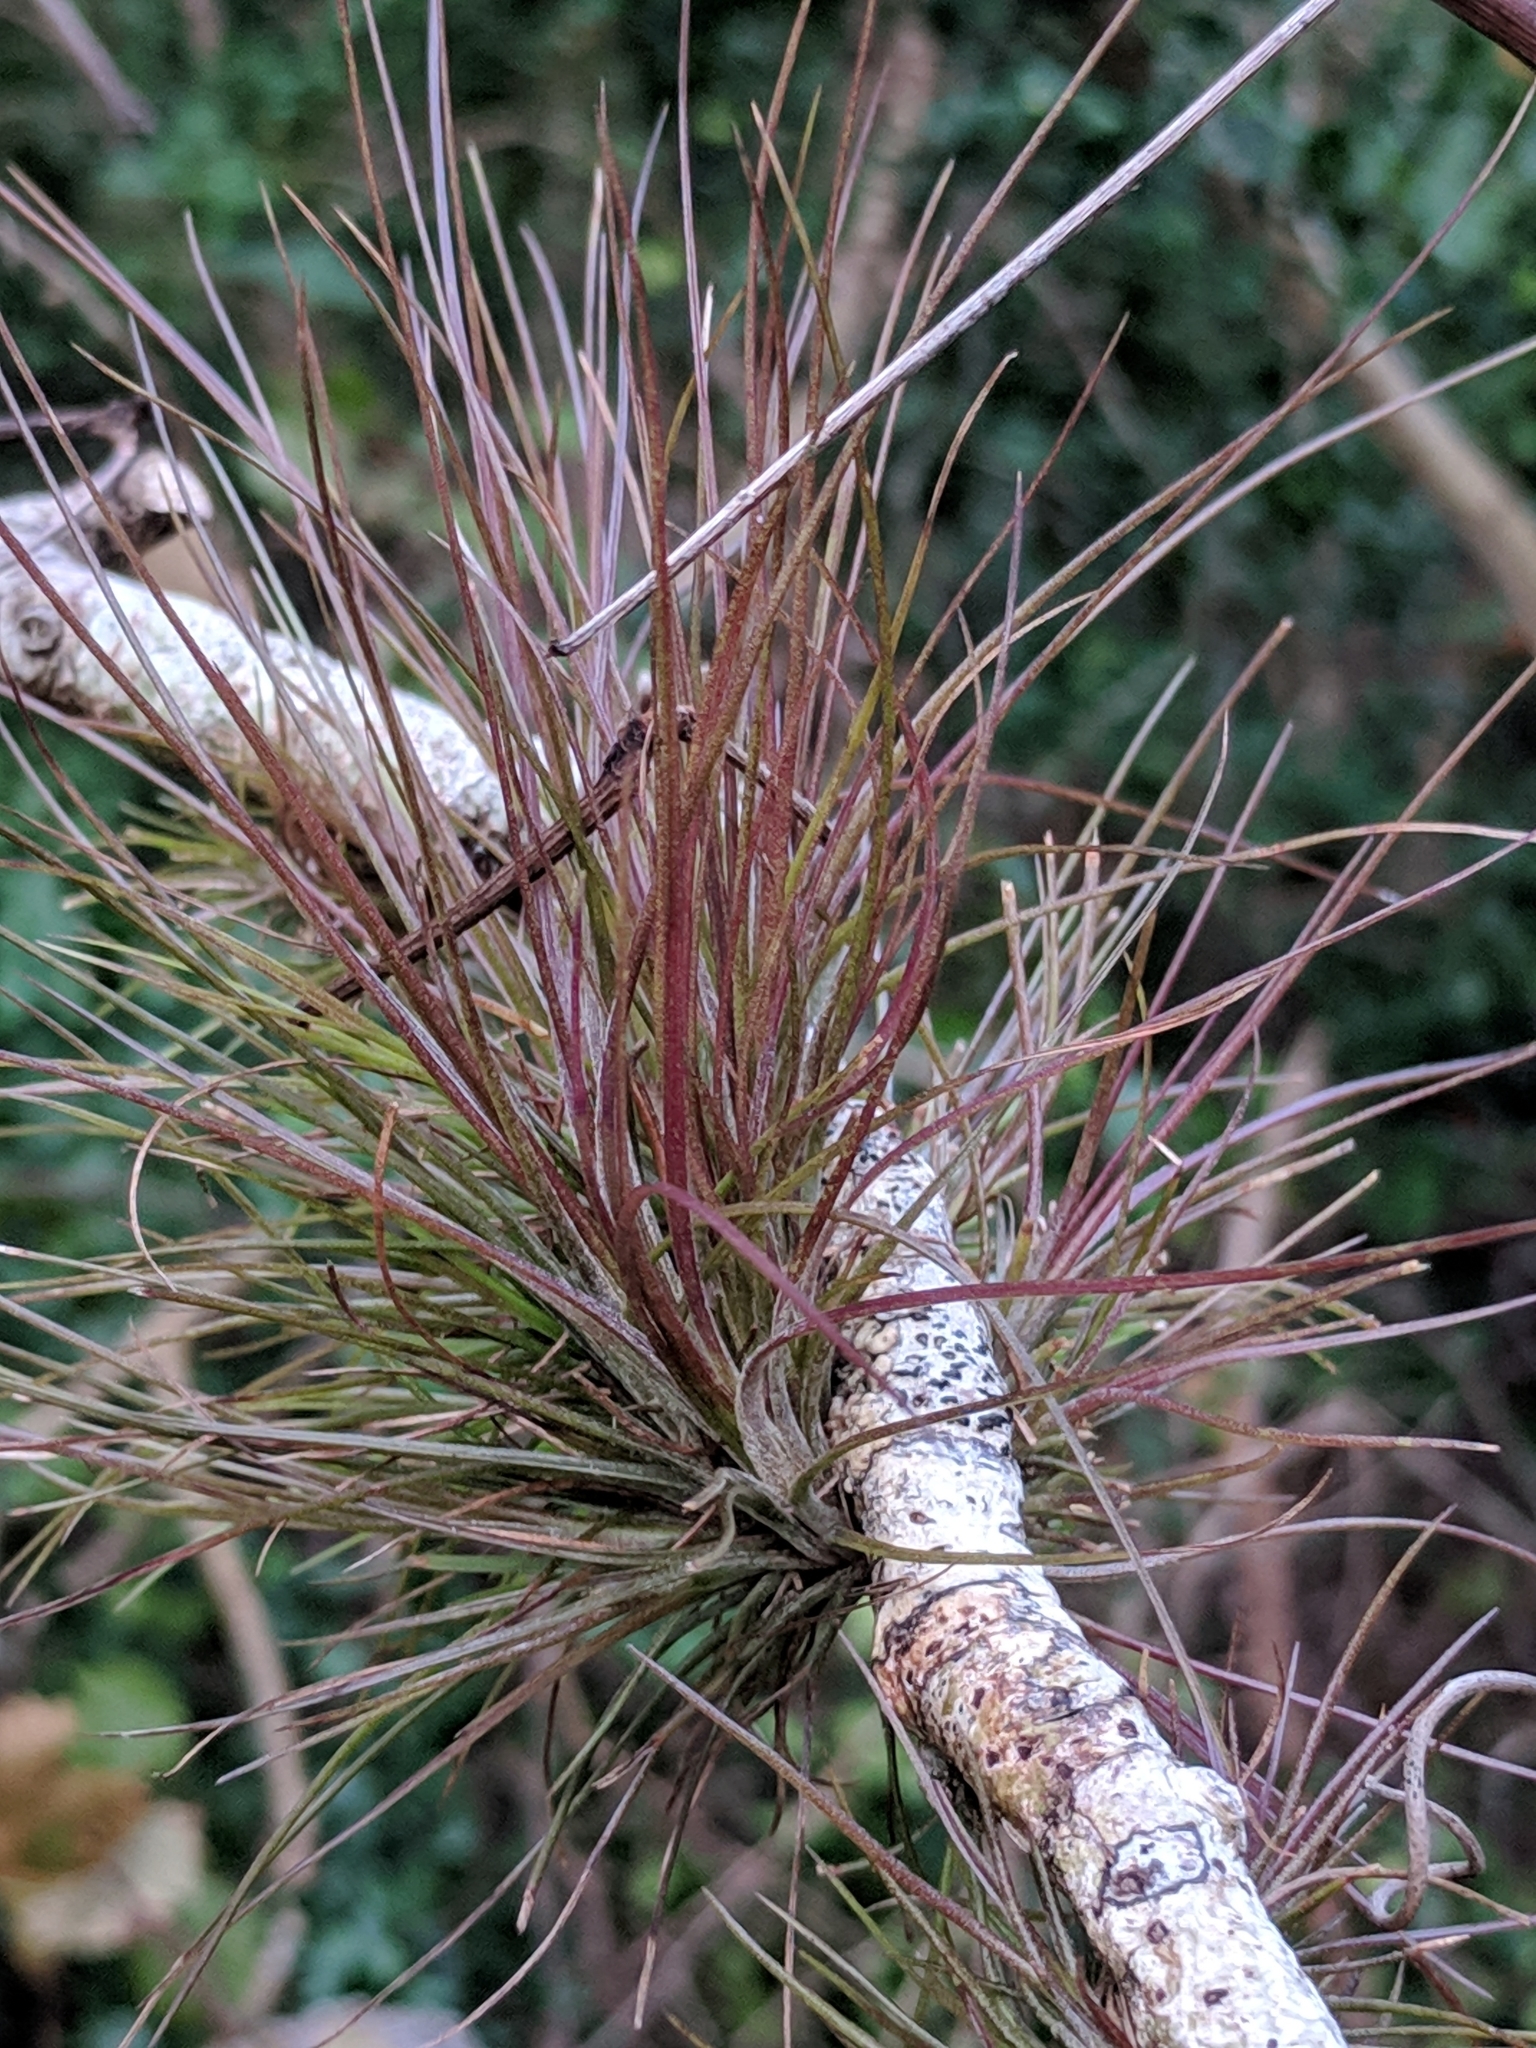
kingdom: Plantae
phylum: Tracheophyta
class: Liliopsida
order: Poales
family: Bromeliaceae
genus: Tillandsia
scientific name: Tillandsia setacea
